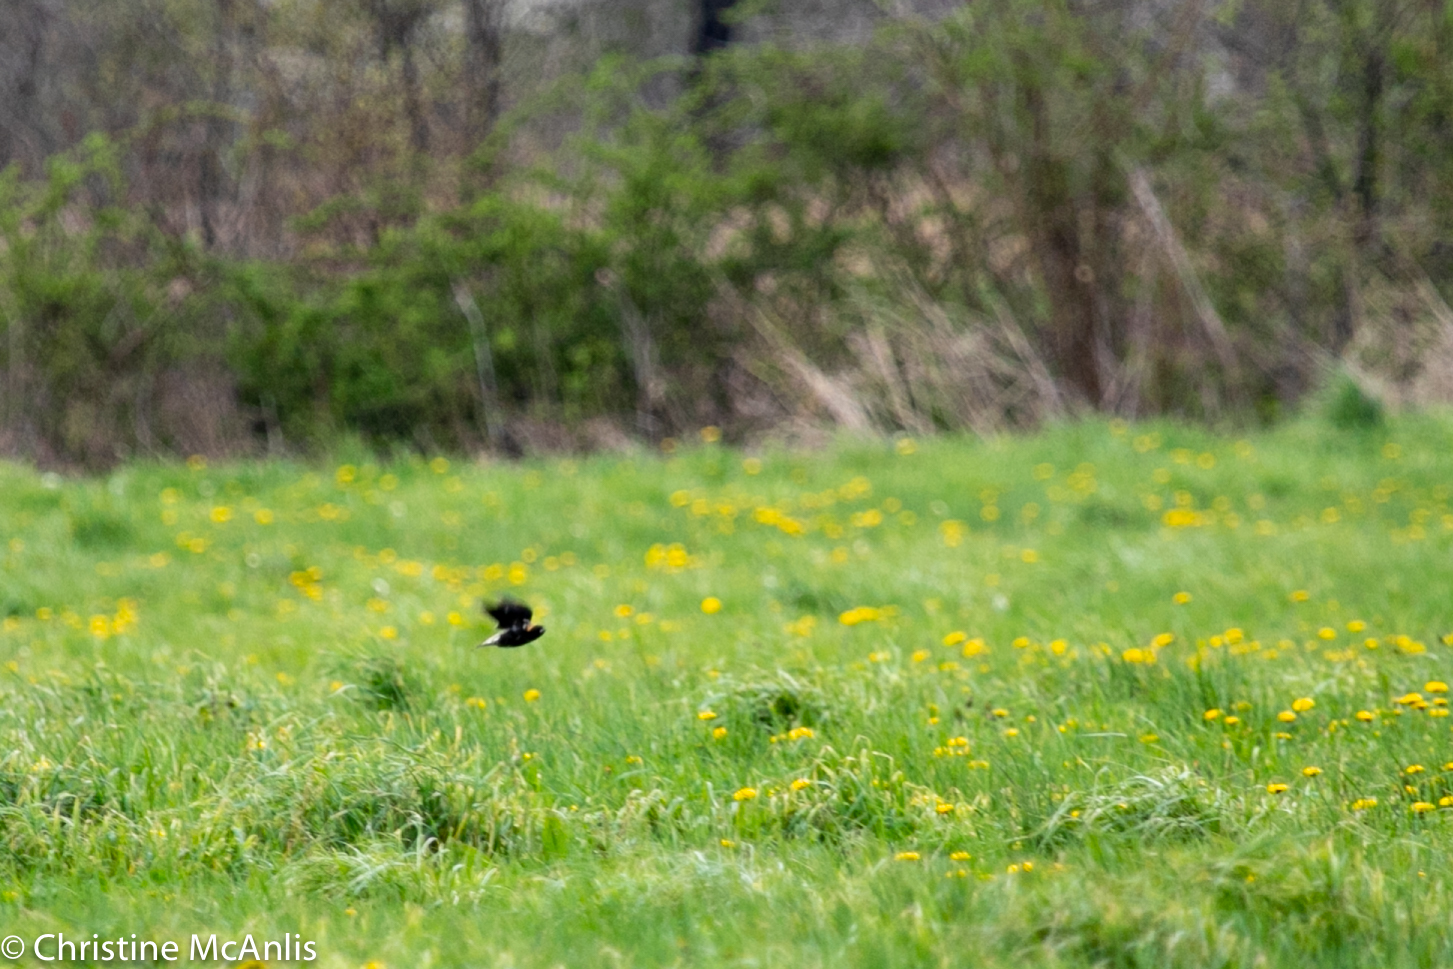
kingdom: Animalia
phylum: Chordata
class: Aves
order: Passeriformes
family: Icteridae
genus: Dolichonyx
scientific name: Dolichonyx oryzivorus
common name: Bobolink
